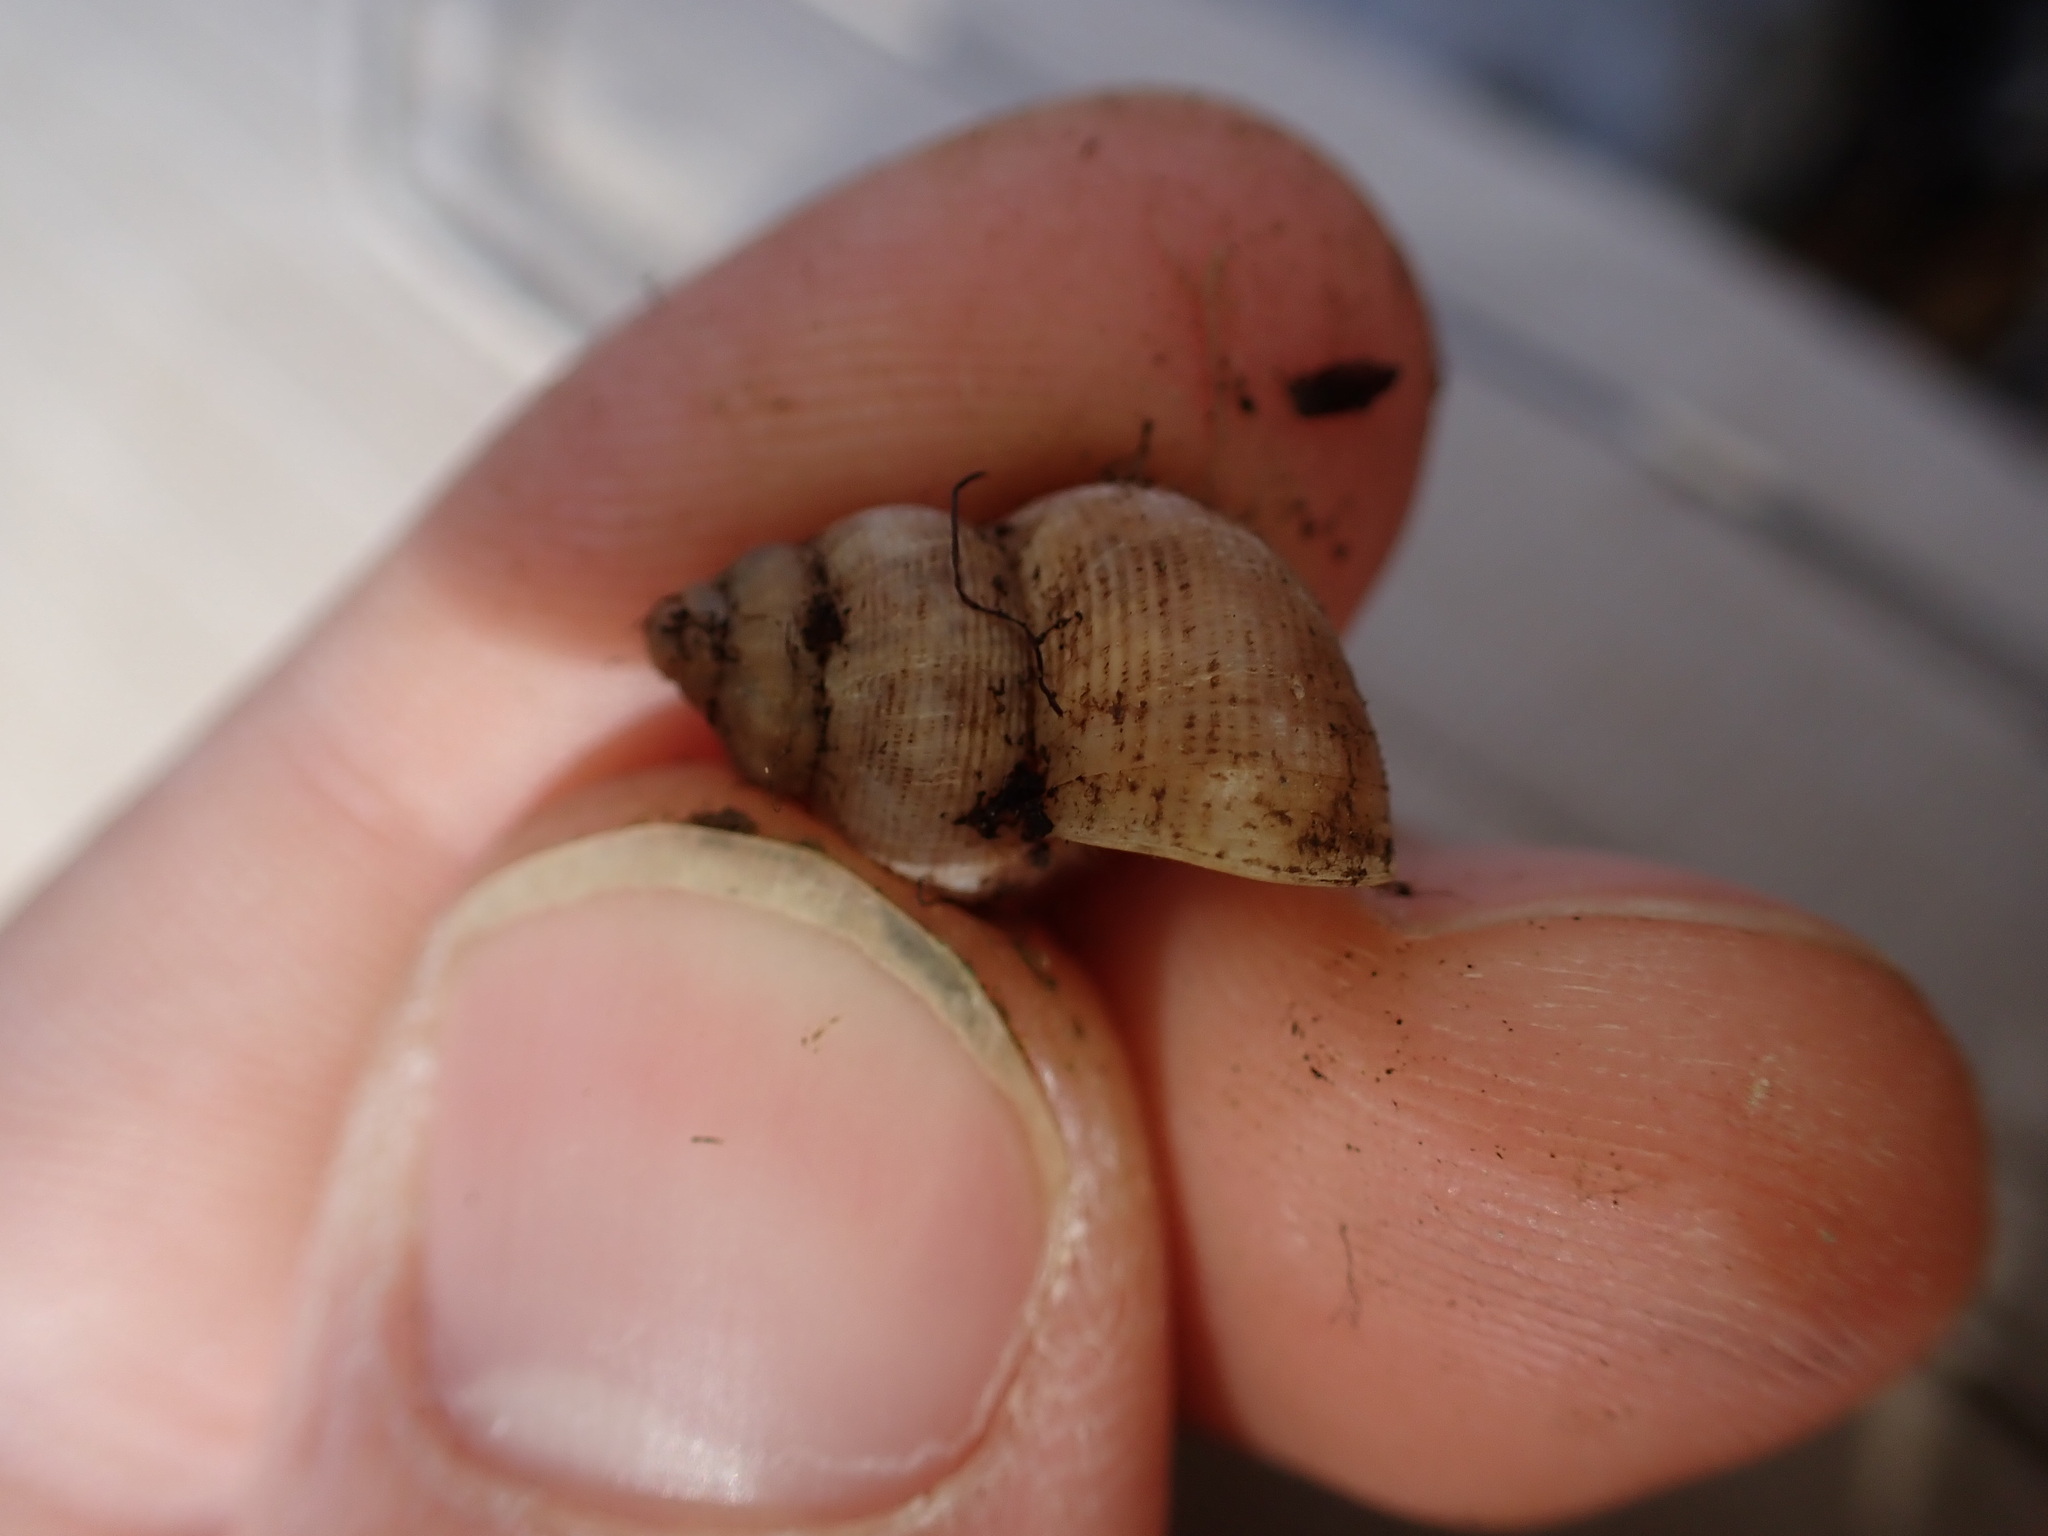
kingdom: Animalia
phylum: Mollusca
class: Gastropoda
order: Littorinimorpha
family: Pomatiidae
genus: Pomatias
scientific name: Pomatias elegans
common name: Red-mouthed snail
